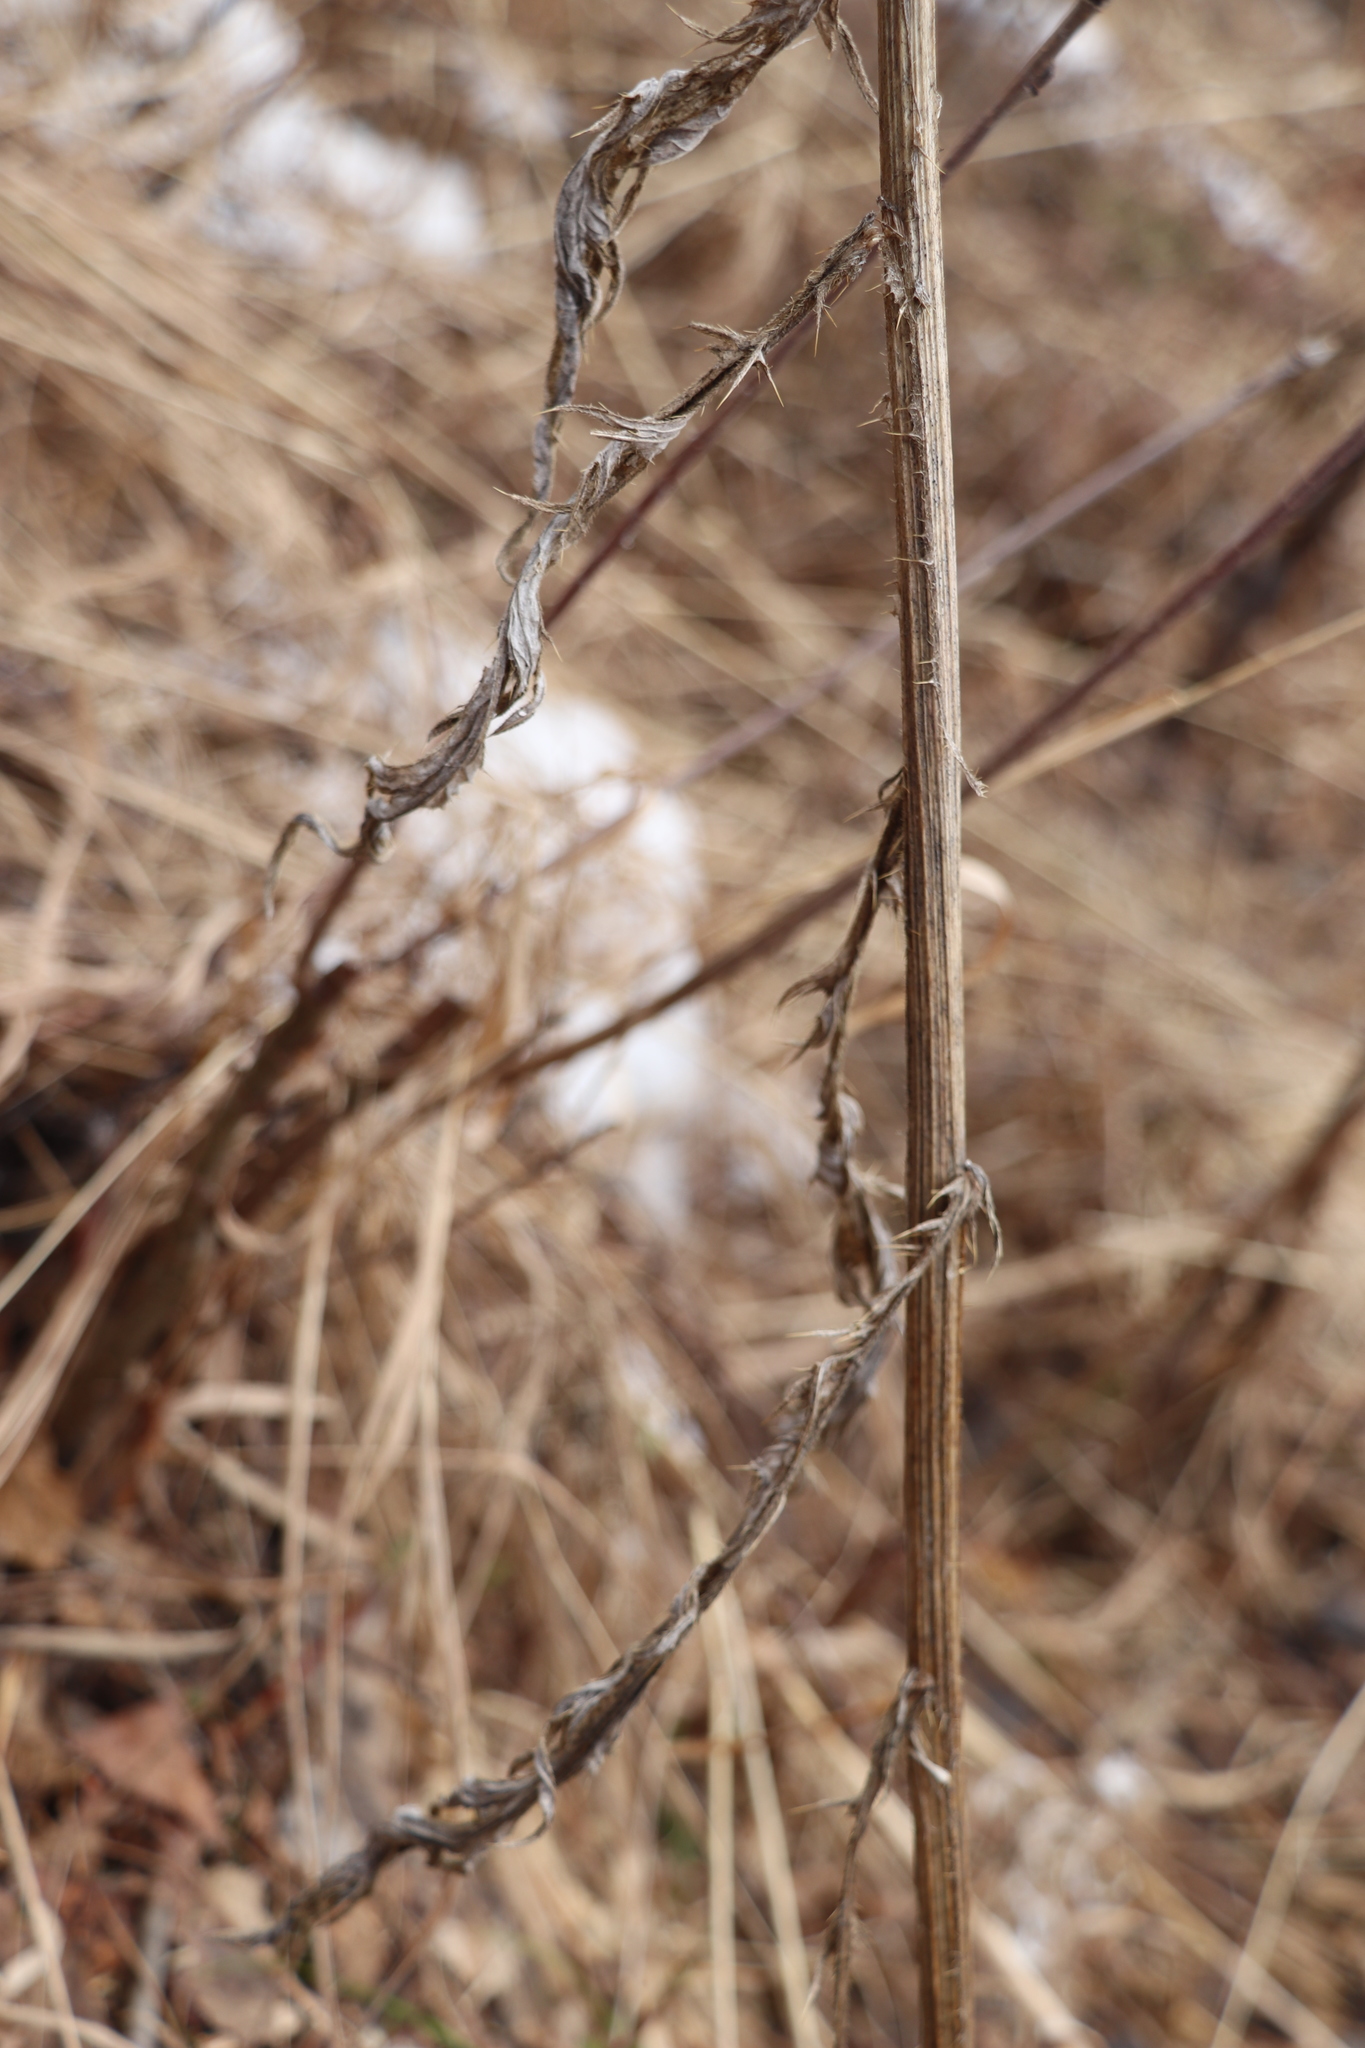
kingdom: Plantae
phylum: Tracheophyta
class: Magnoliopsida
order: Asterales
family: Asteraceae
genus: Cirsium
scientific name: Cirsium vulgare
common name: Bull thistle
